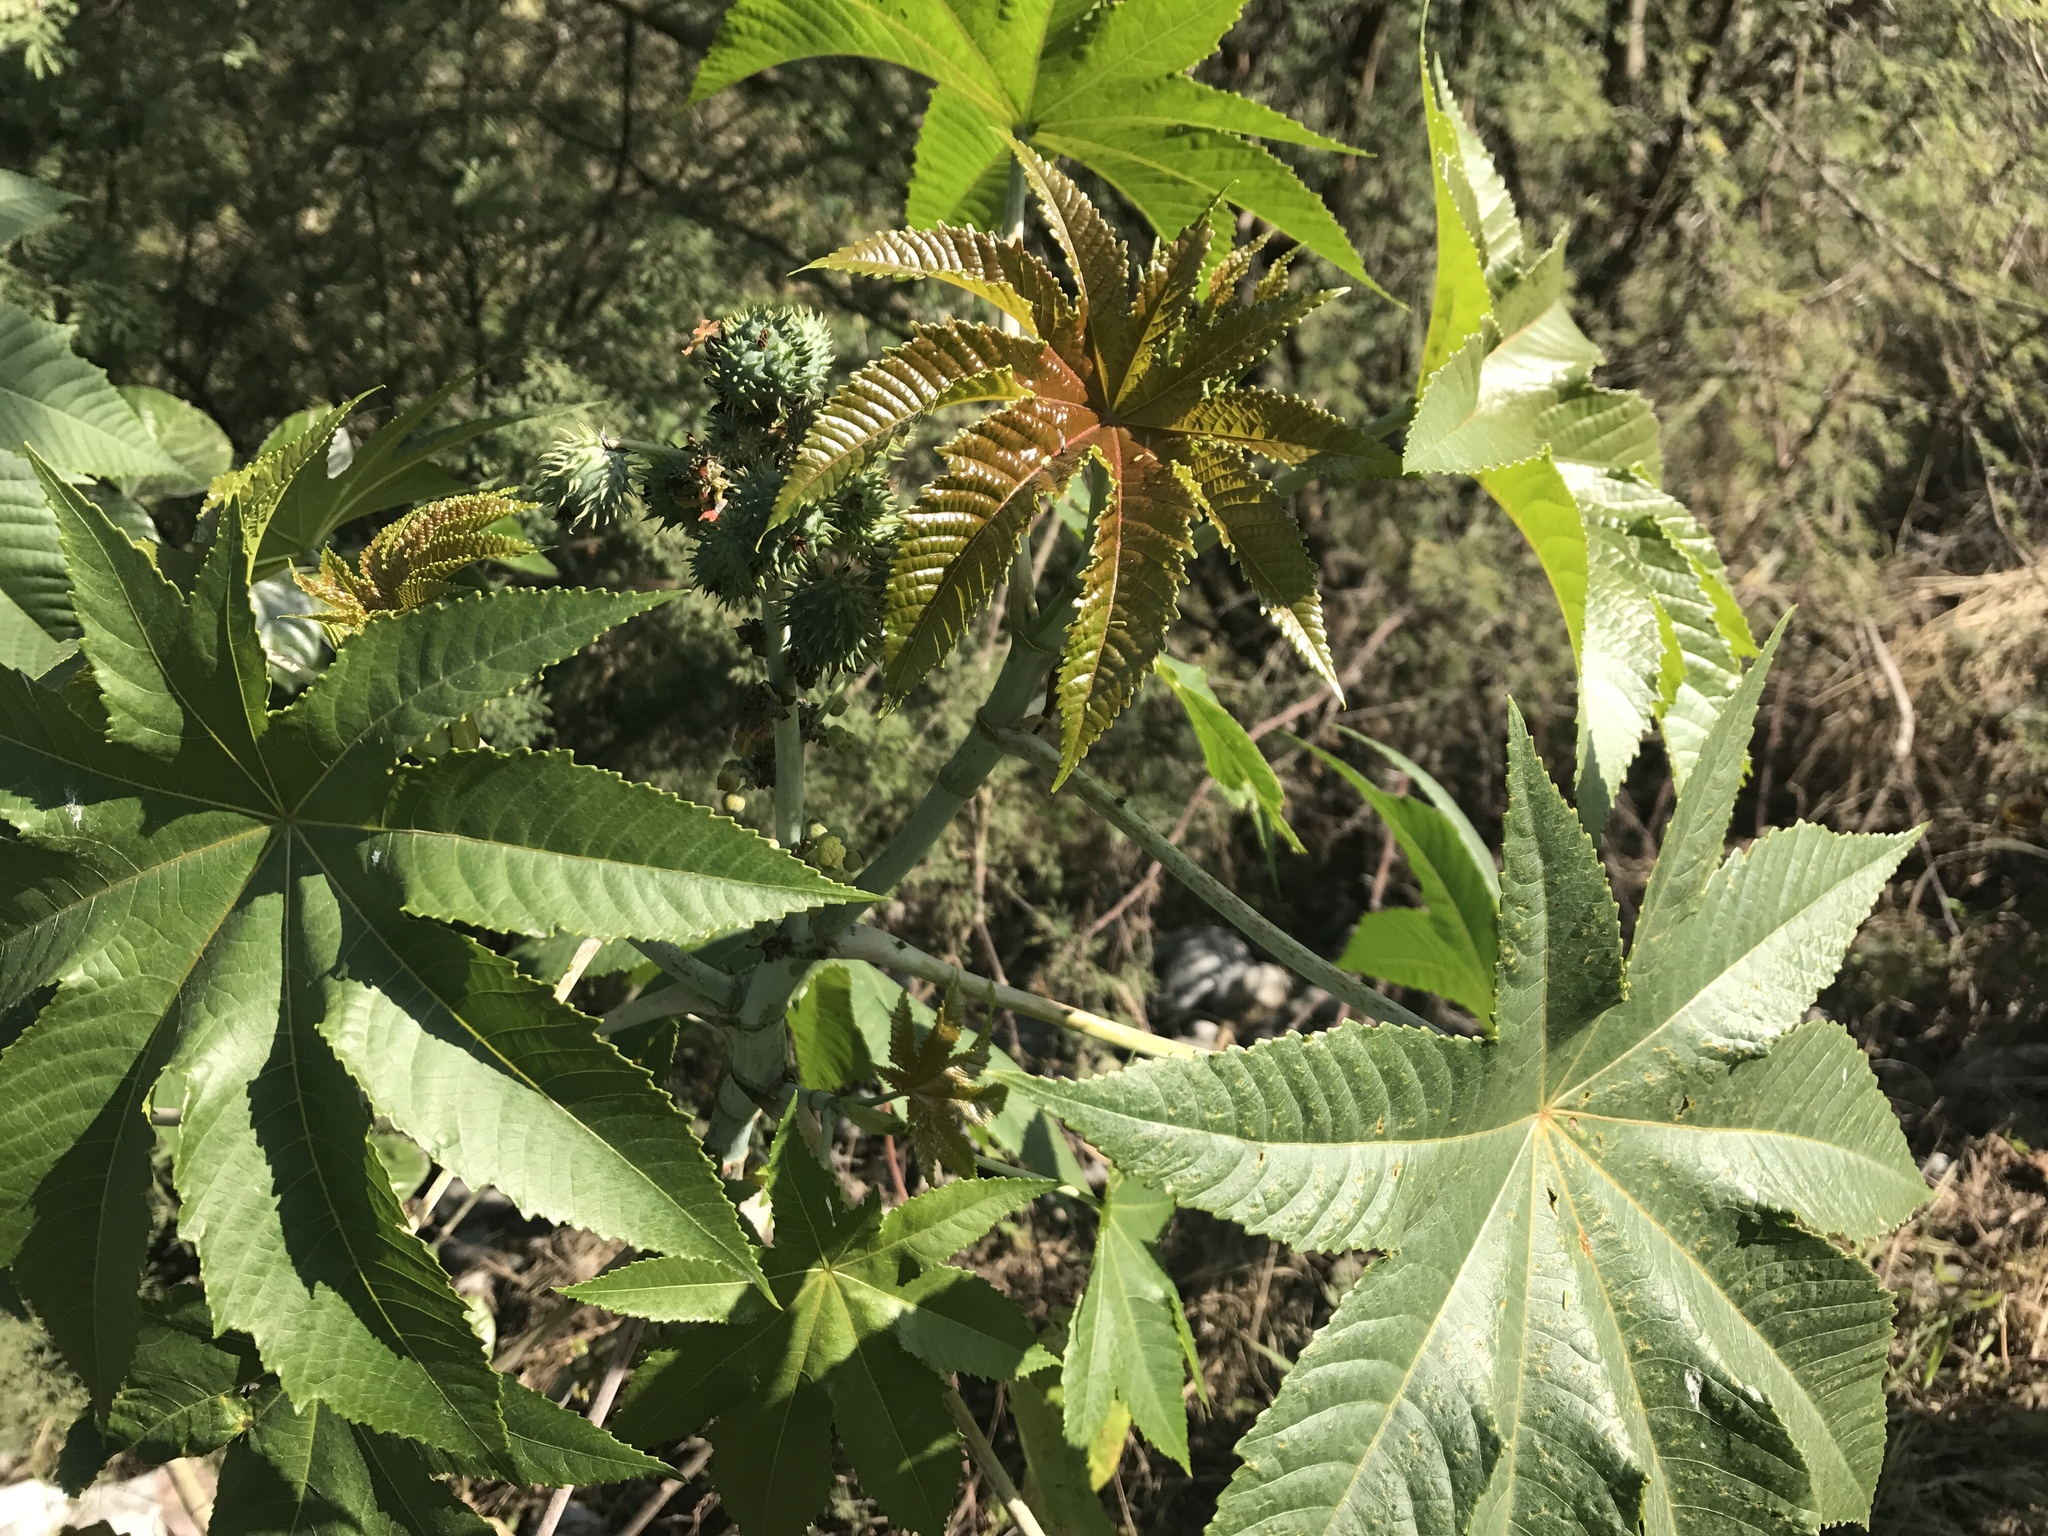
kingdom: Plantae
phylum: Tracheophyta
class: Magnoliopsida
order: Malpighiales
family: Euphorbiaceae
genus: Ricinus
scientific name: Ricinus communis
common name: Castor-oil-plant
